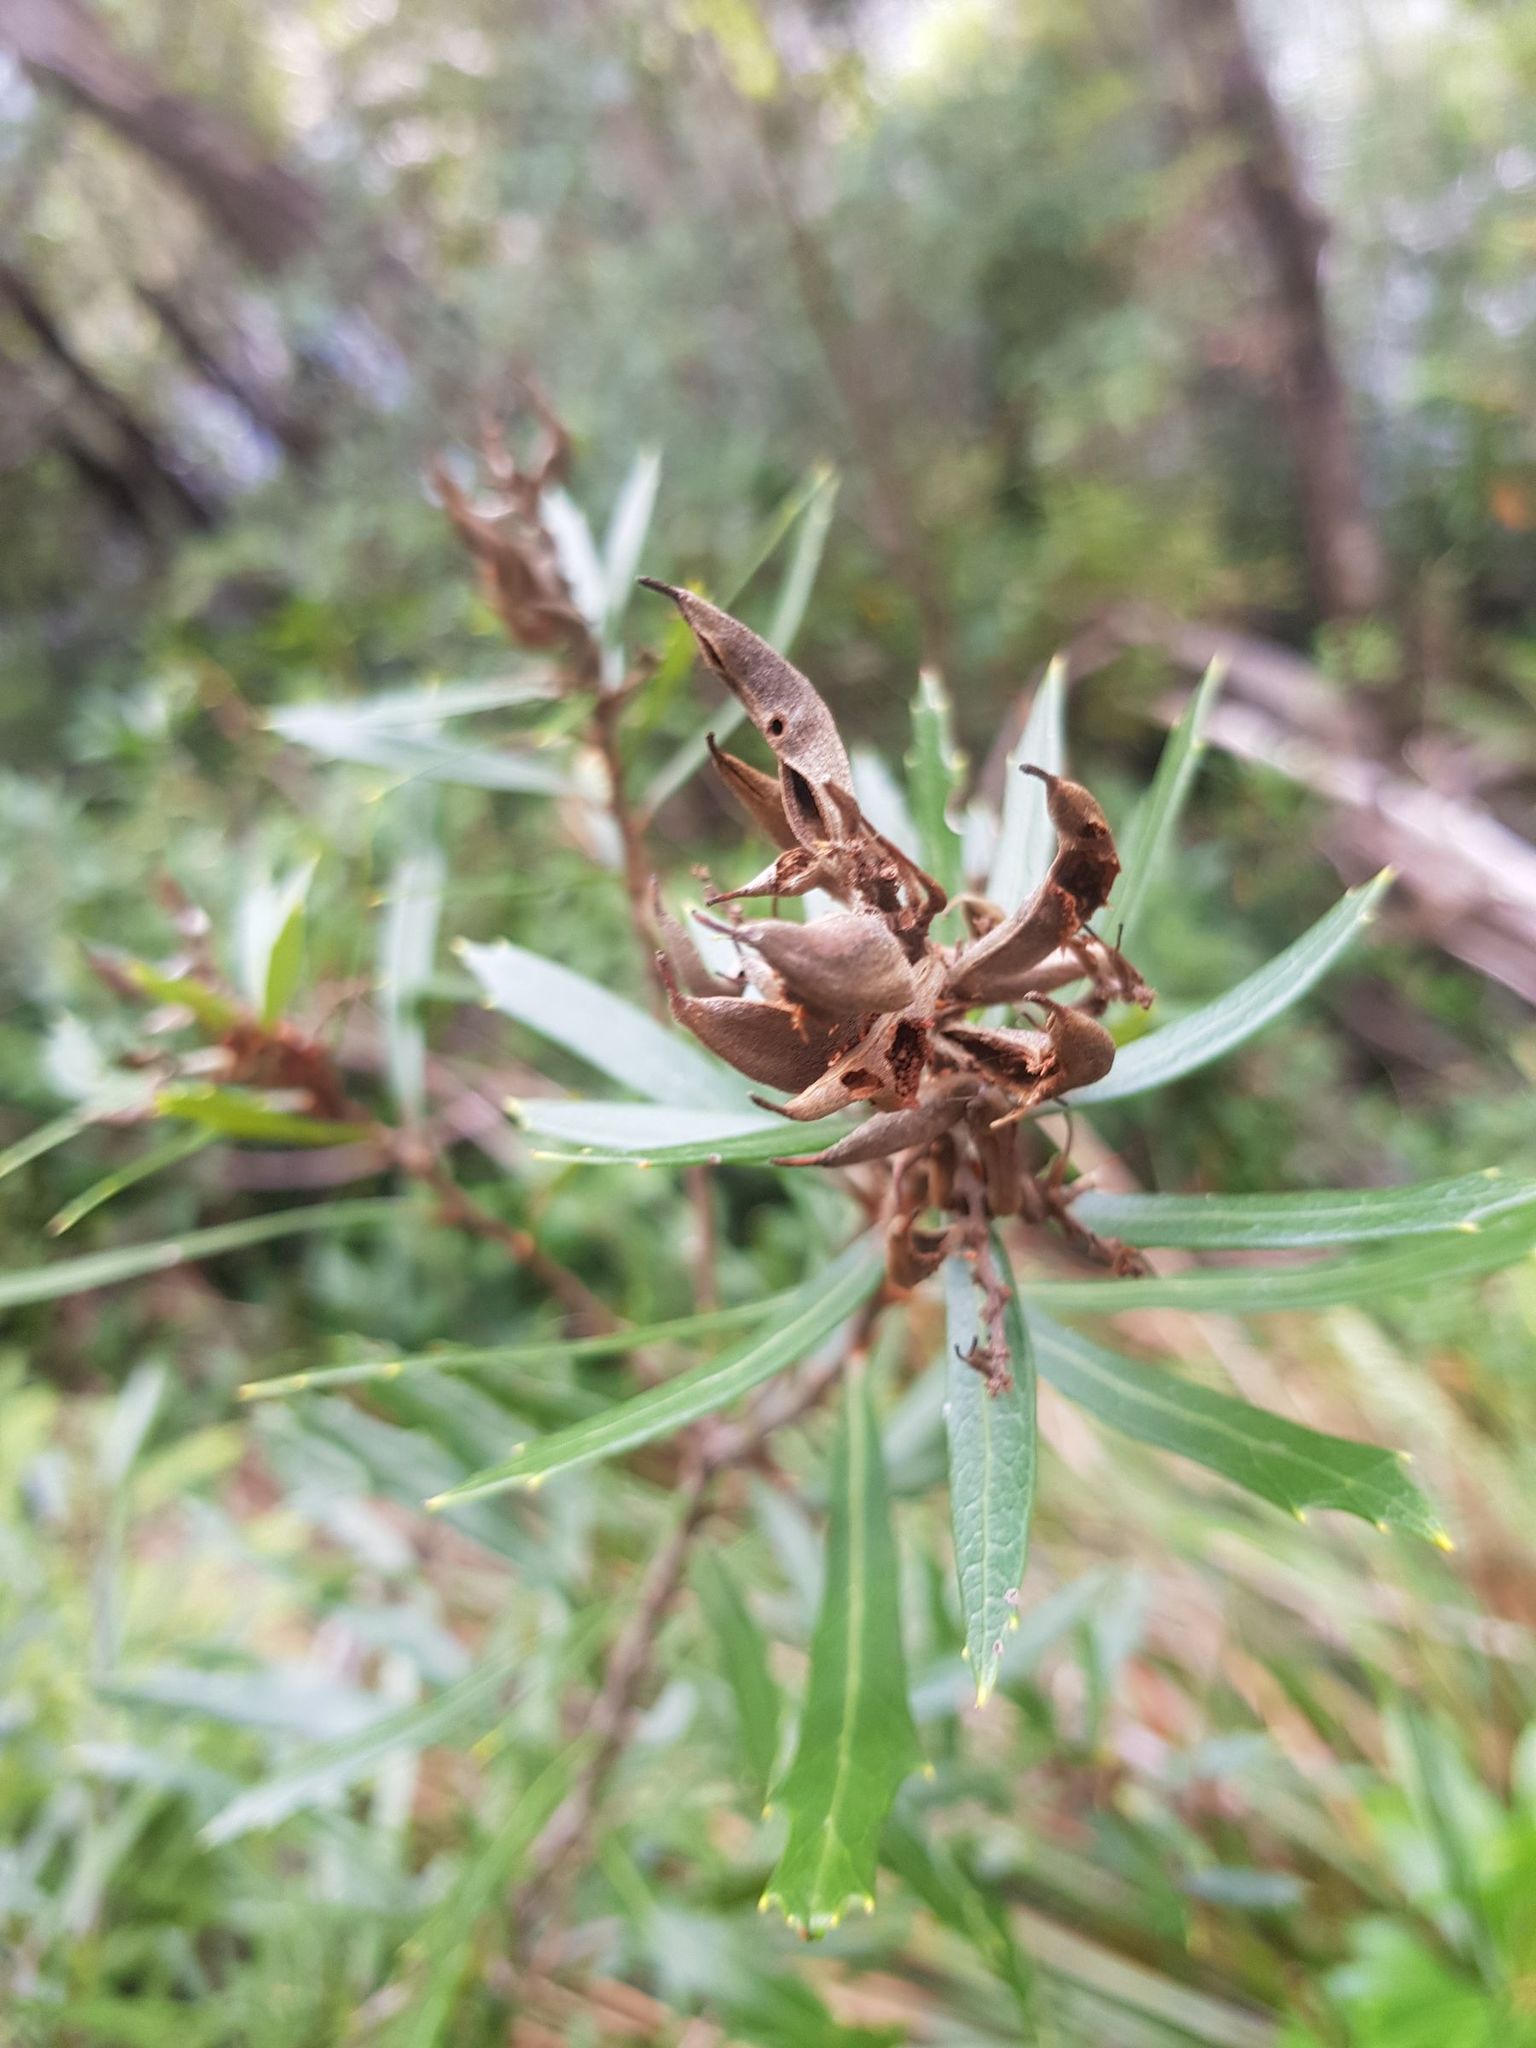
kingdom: Plantae
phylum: Tracheophyta
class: Magnoliopsida
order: Proteales
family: Proteaceae
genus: Orites
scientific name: Orites diversifolius
